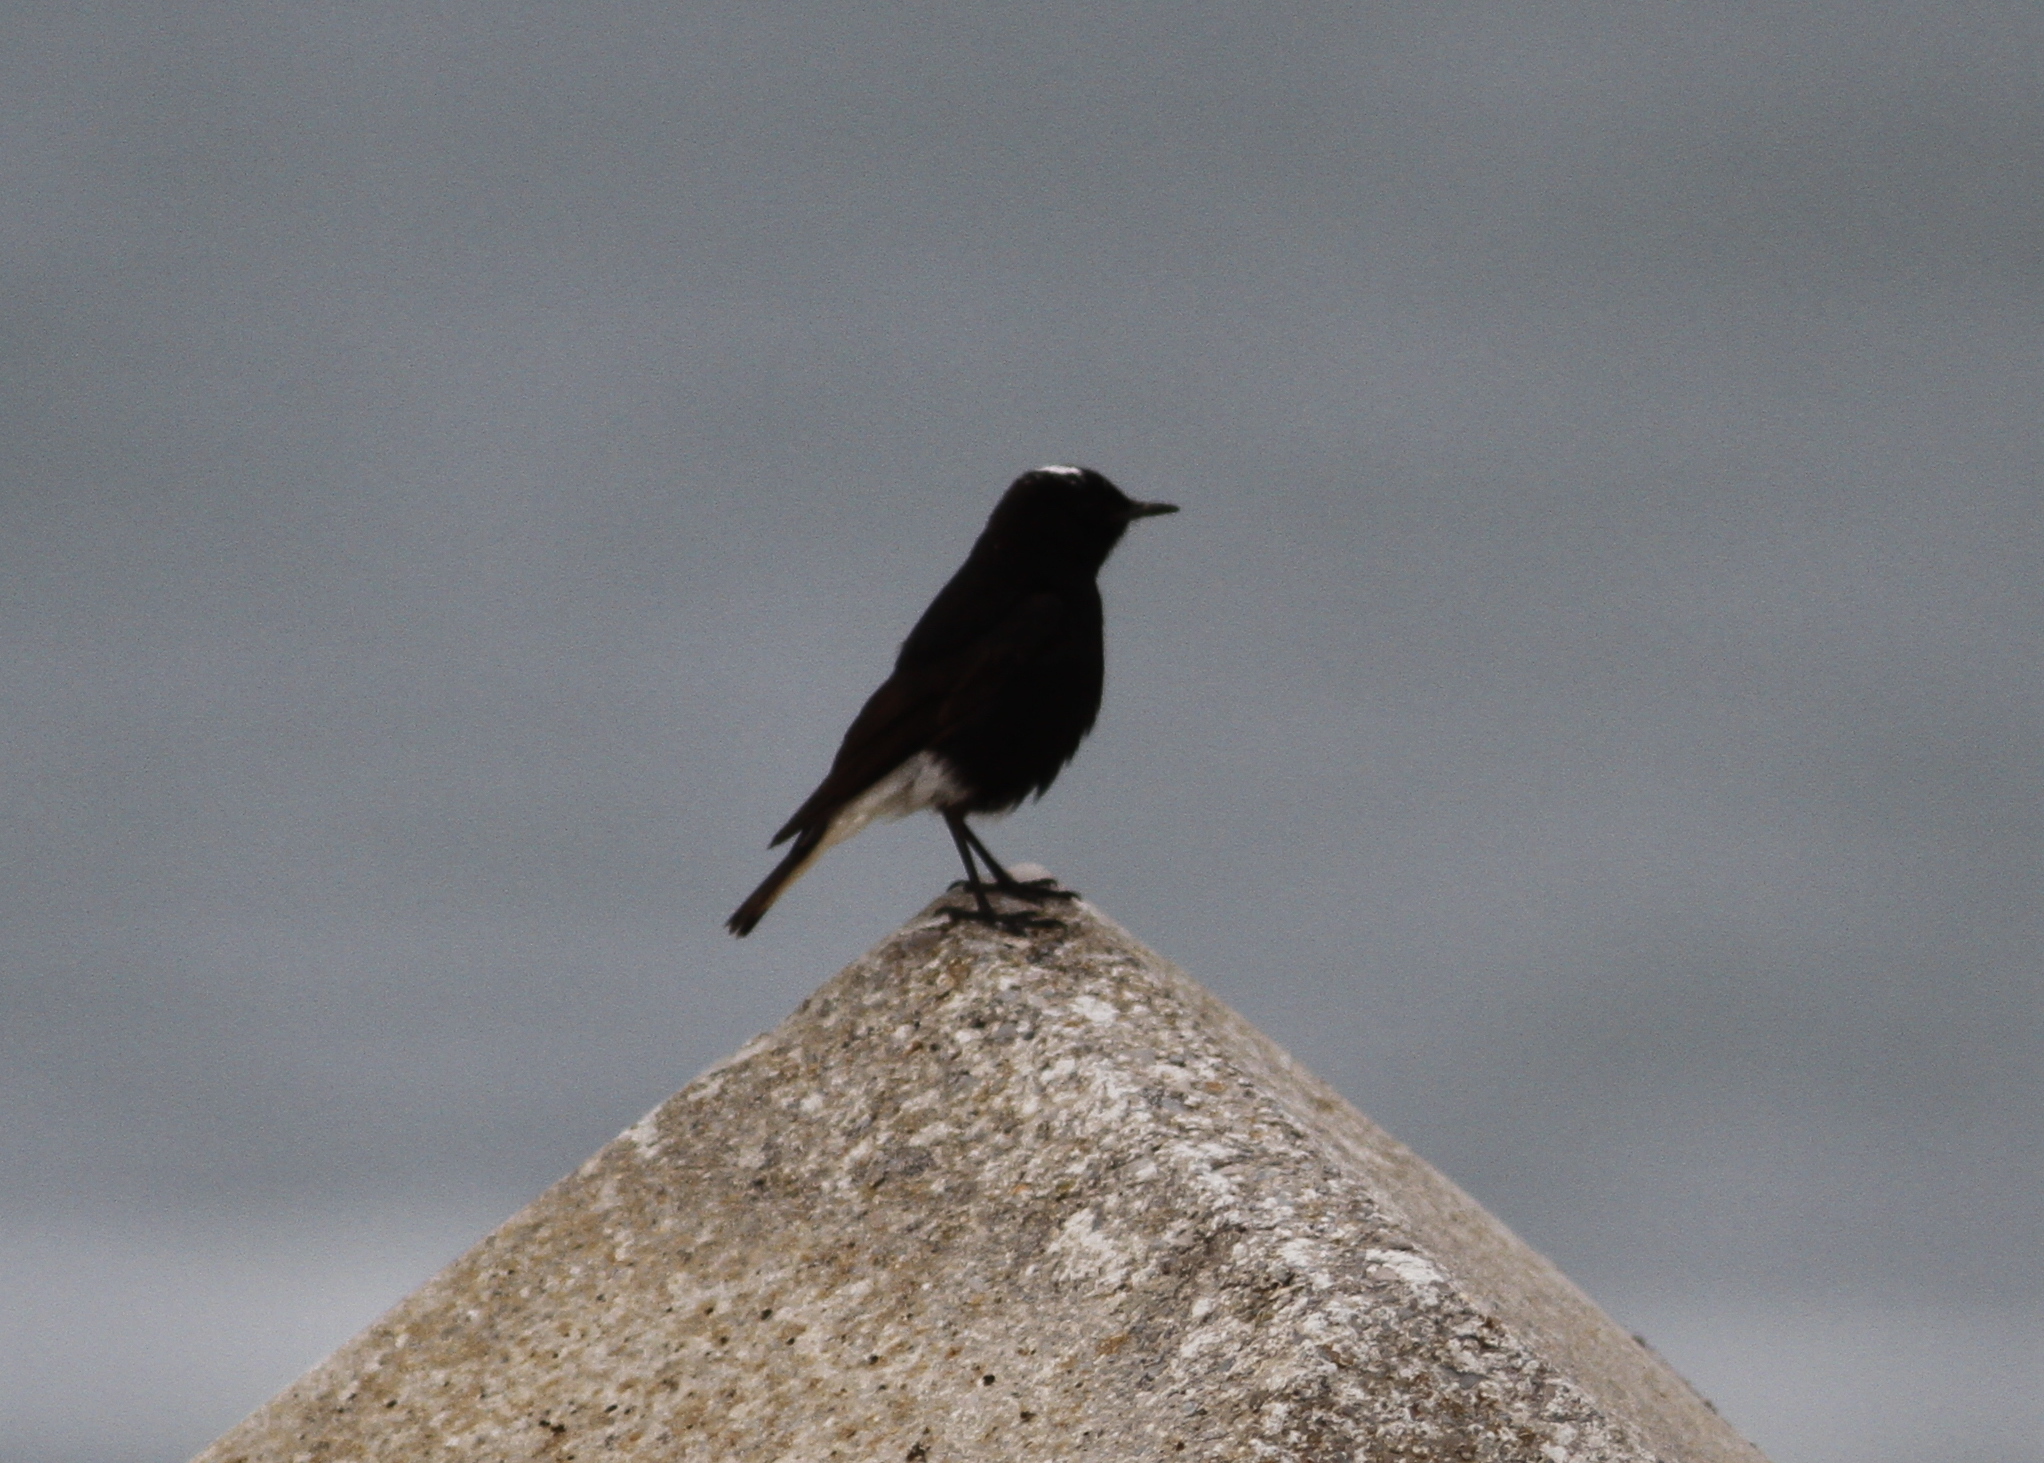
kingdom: Animalia
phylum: Chordata
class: Aves
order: Passeriformes
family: Muscicapidae
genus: Oenanthe
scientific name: Oenanthe leucopyga
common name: White-crowned wheatear
